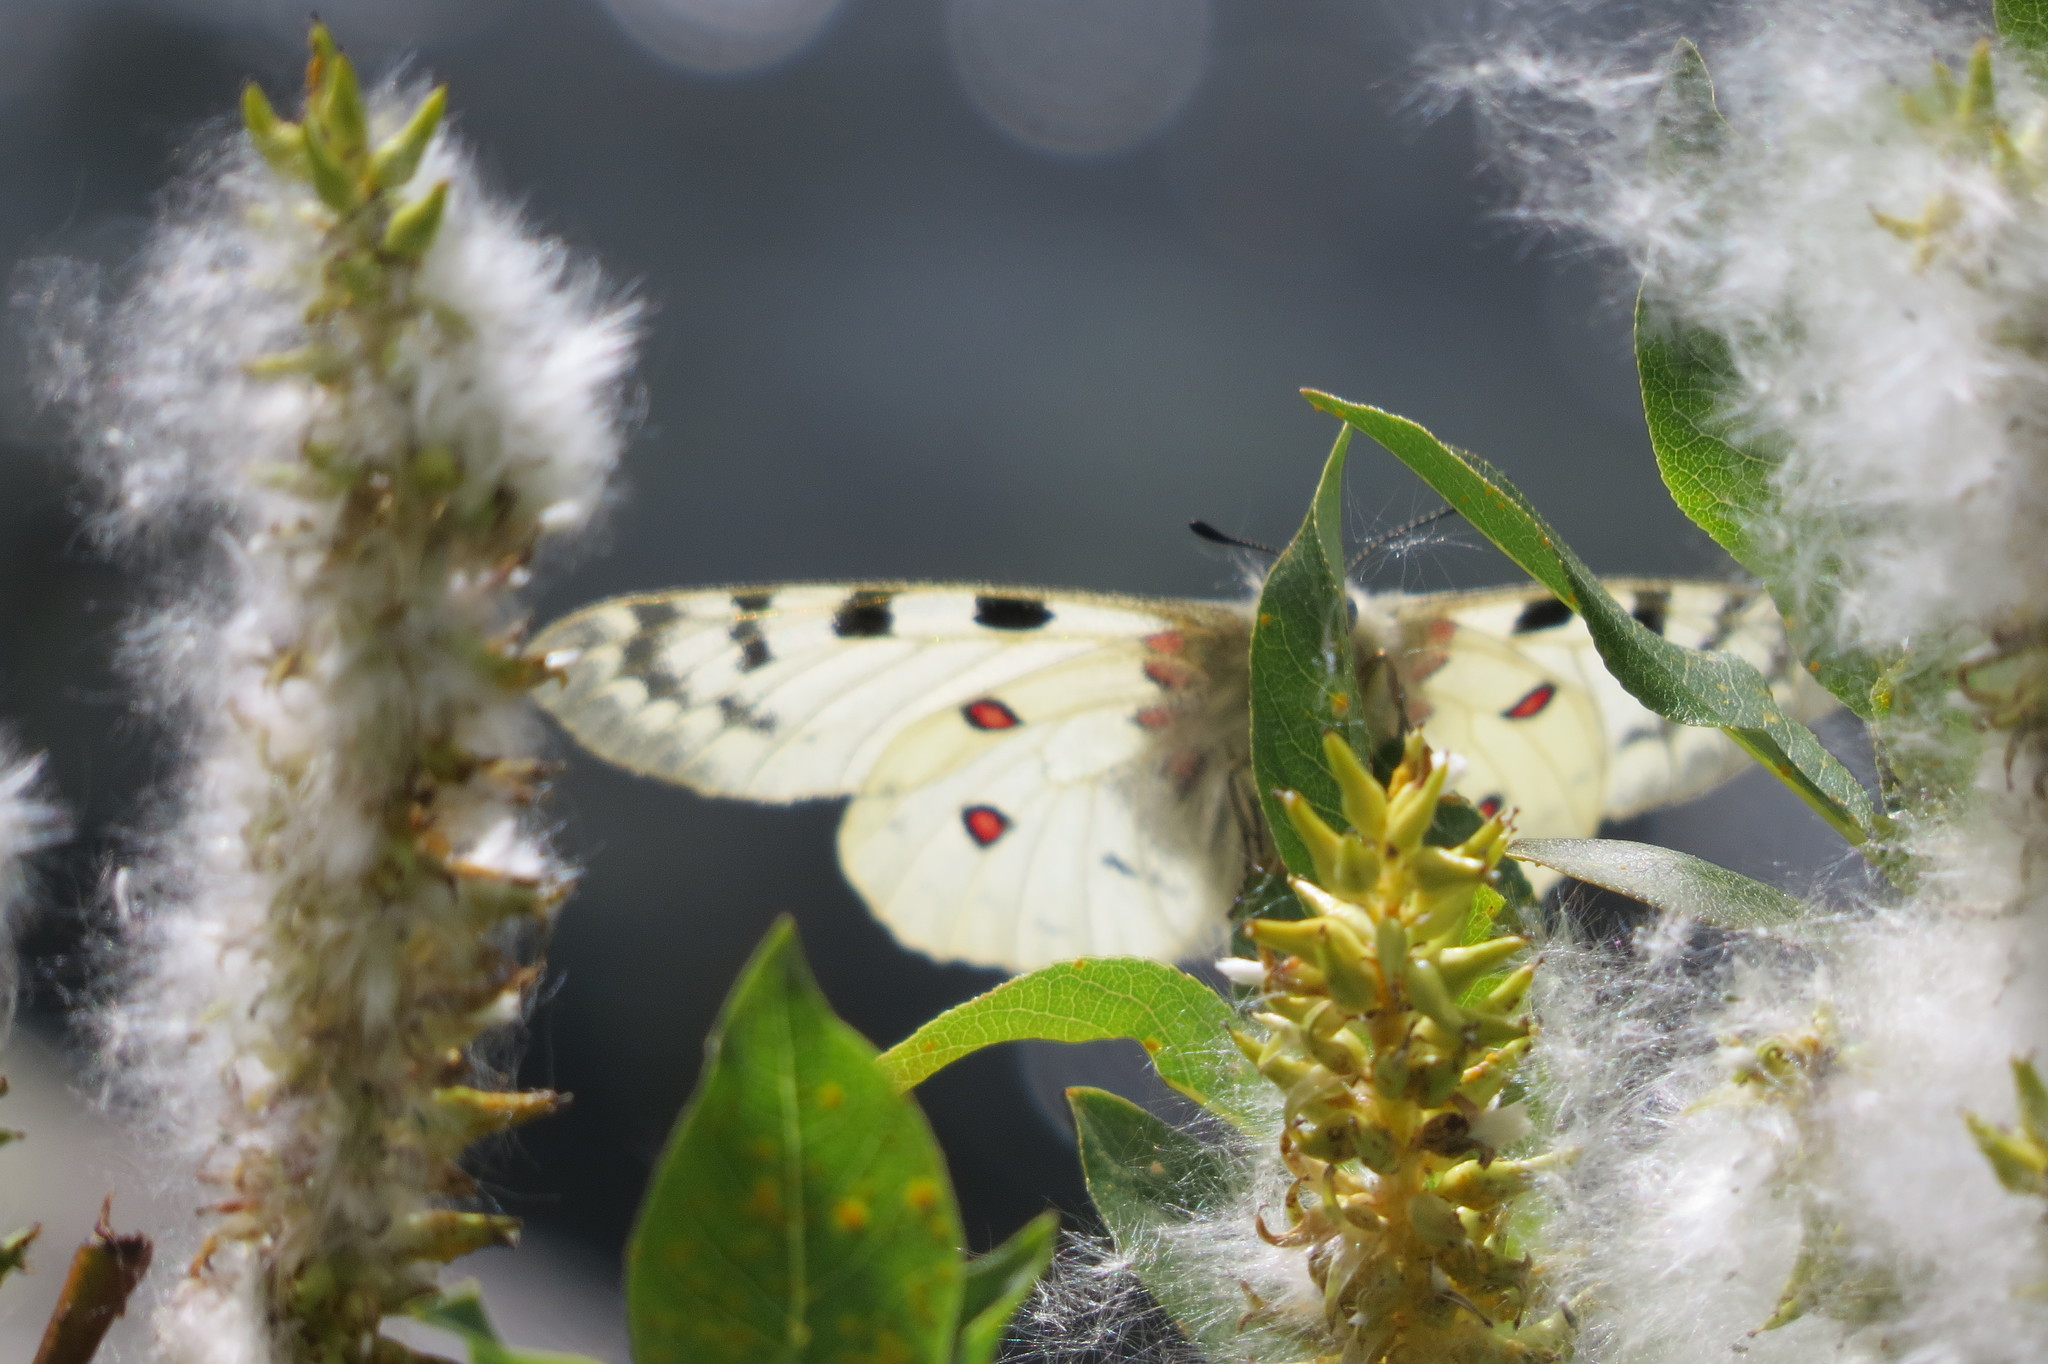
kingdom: Animalia
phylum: Arthropoda
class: Insecta
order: Lepidoptera
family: Papilionidae
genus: Parnassius
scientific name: Parnassius phoebus
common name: Small apollo
